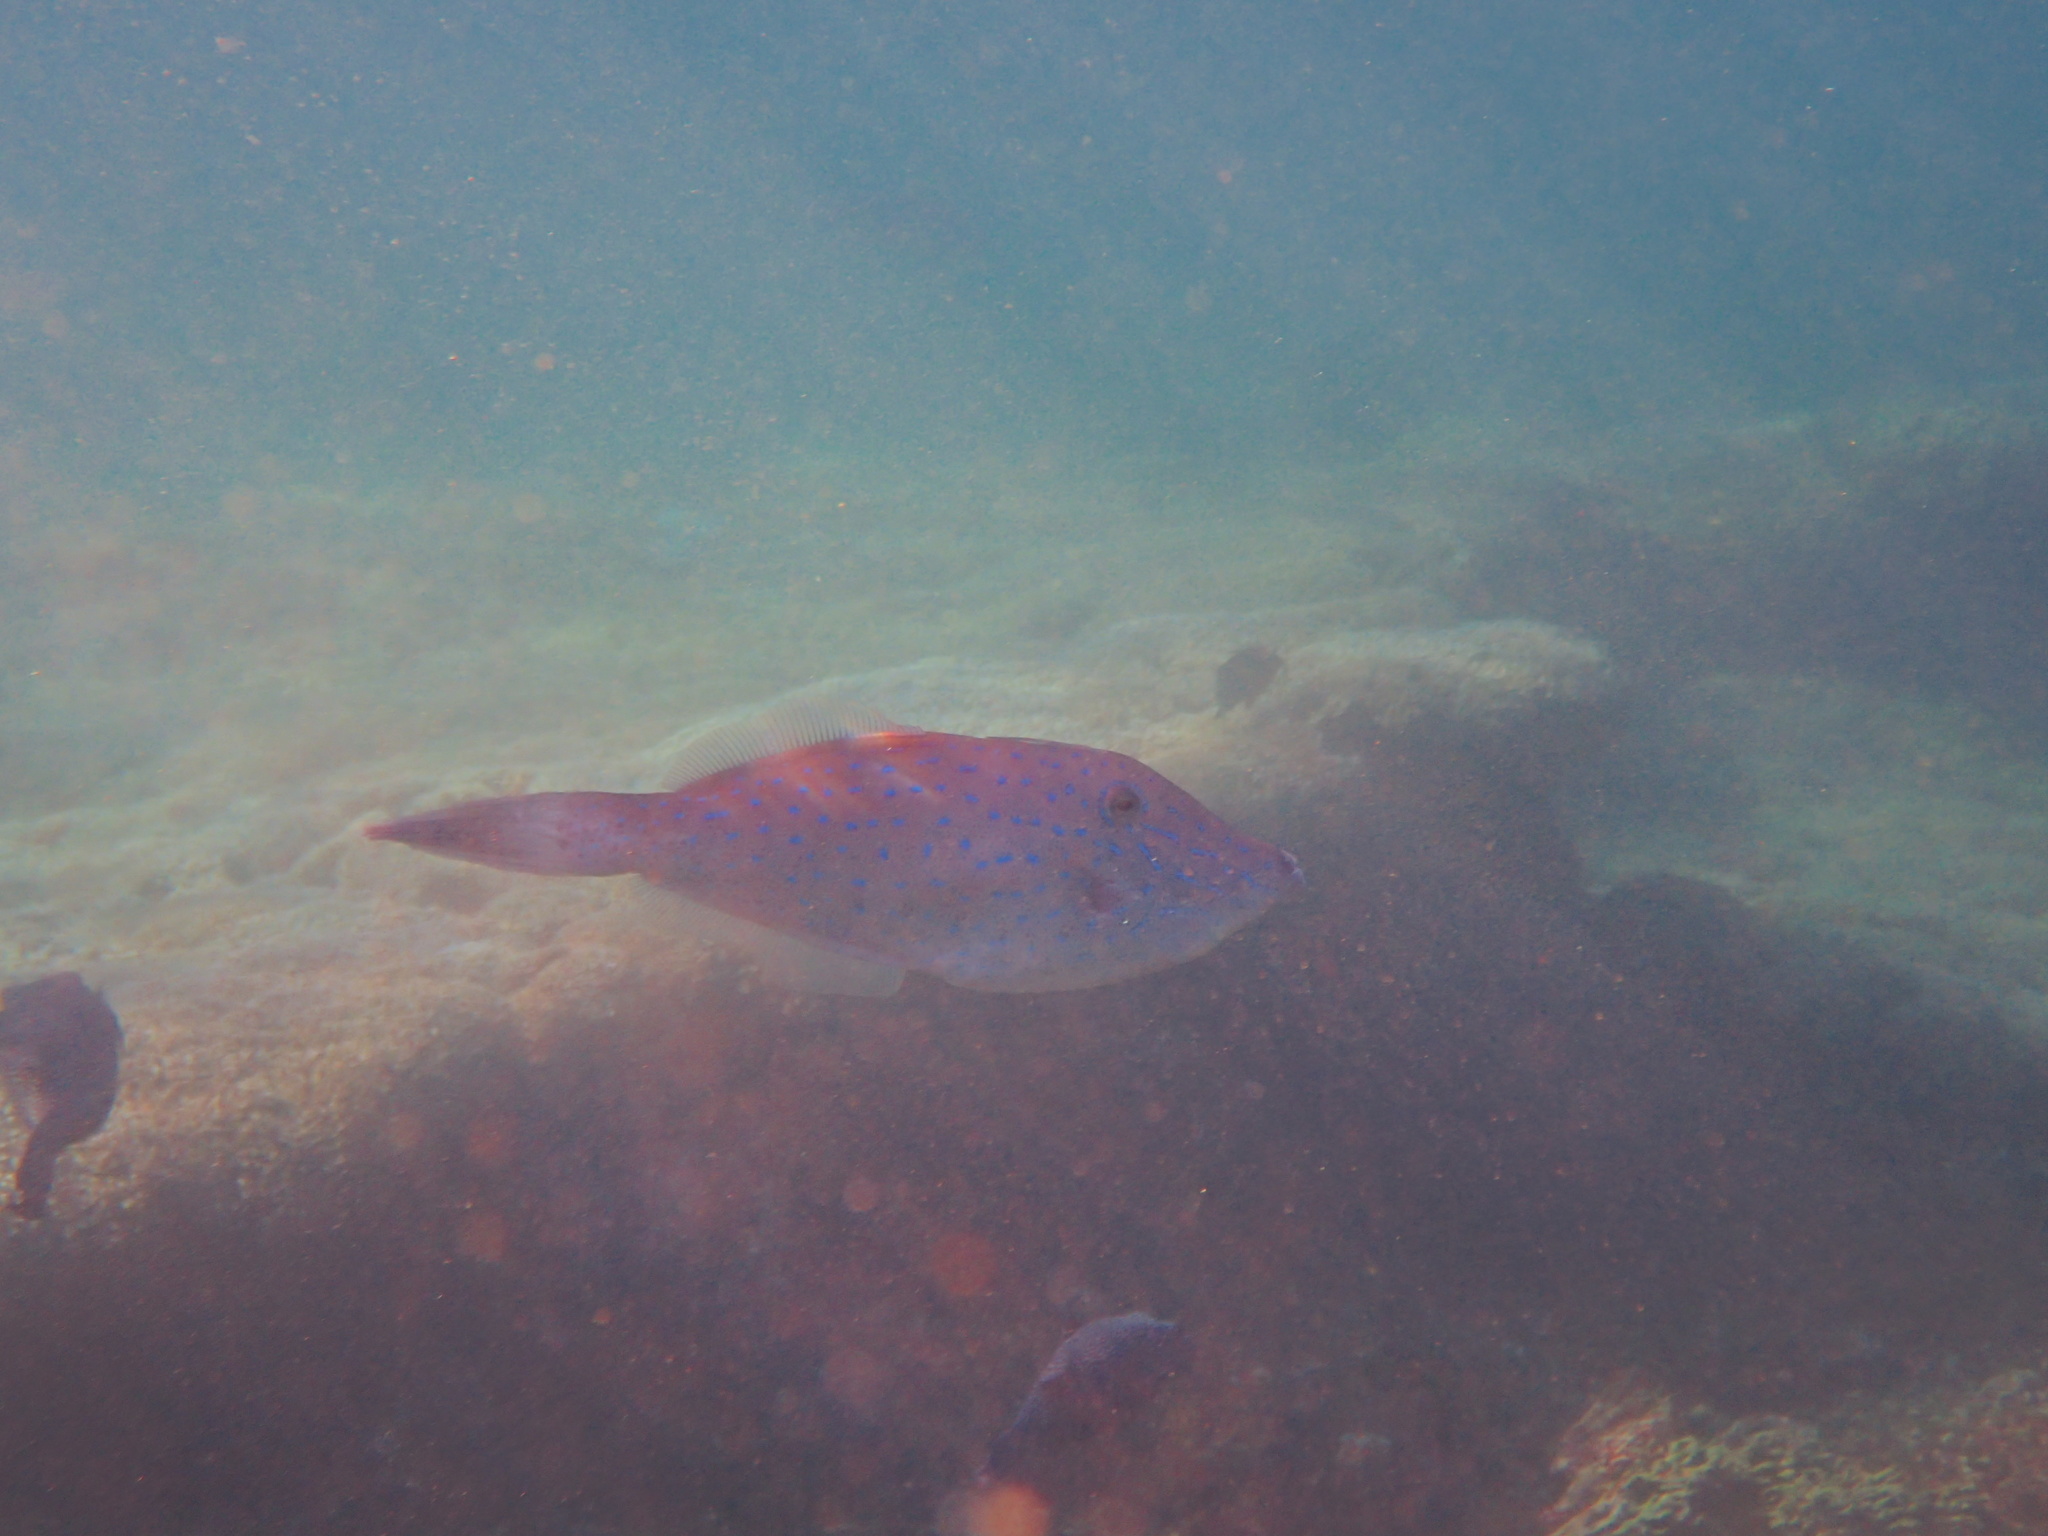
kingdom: Animalia
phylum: Chordata
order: Tetraodontiformes
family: Monacanthidae
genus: Aluterus
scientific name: Aluterus scriptus
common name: Scribbled leatherjacket filefish
